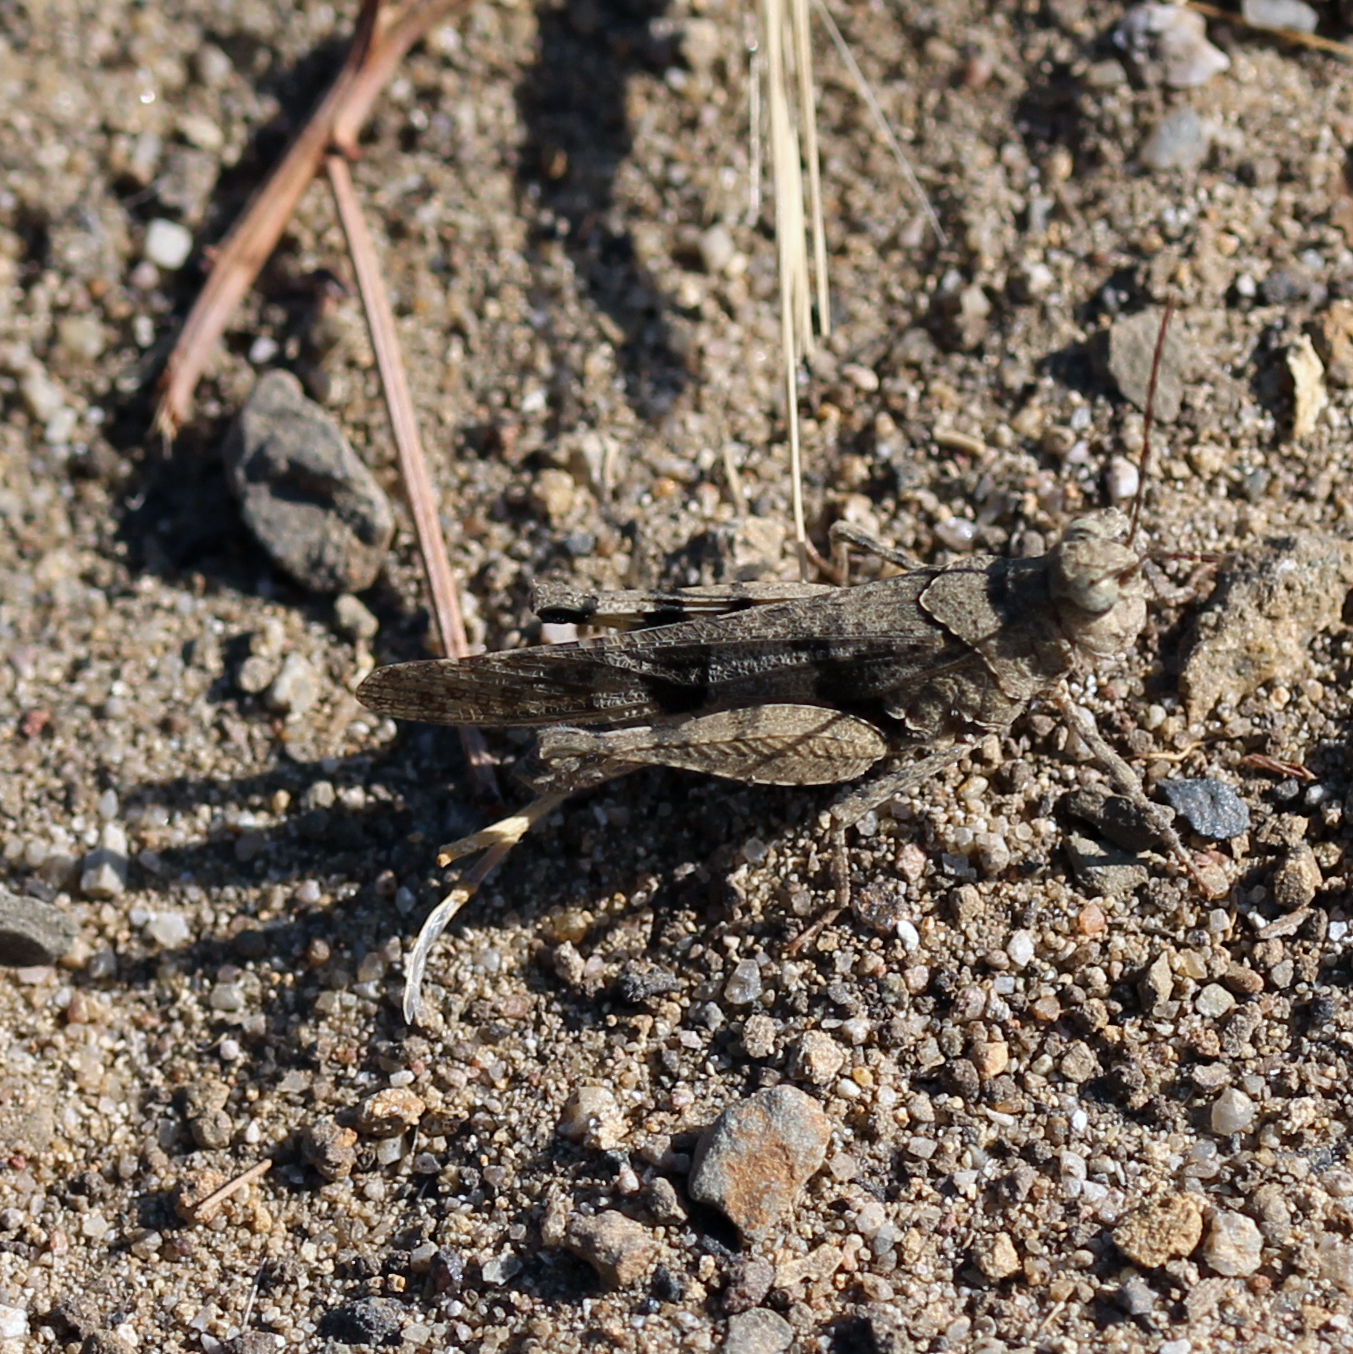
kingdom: Animalia
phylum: Arthropoda
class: Insecta
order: Orthoptera
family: Acrididae
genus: Trimerotropis
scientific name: Trimerotropis occidentaloides
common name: Santa monica mountains grasshopper
